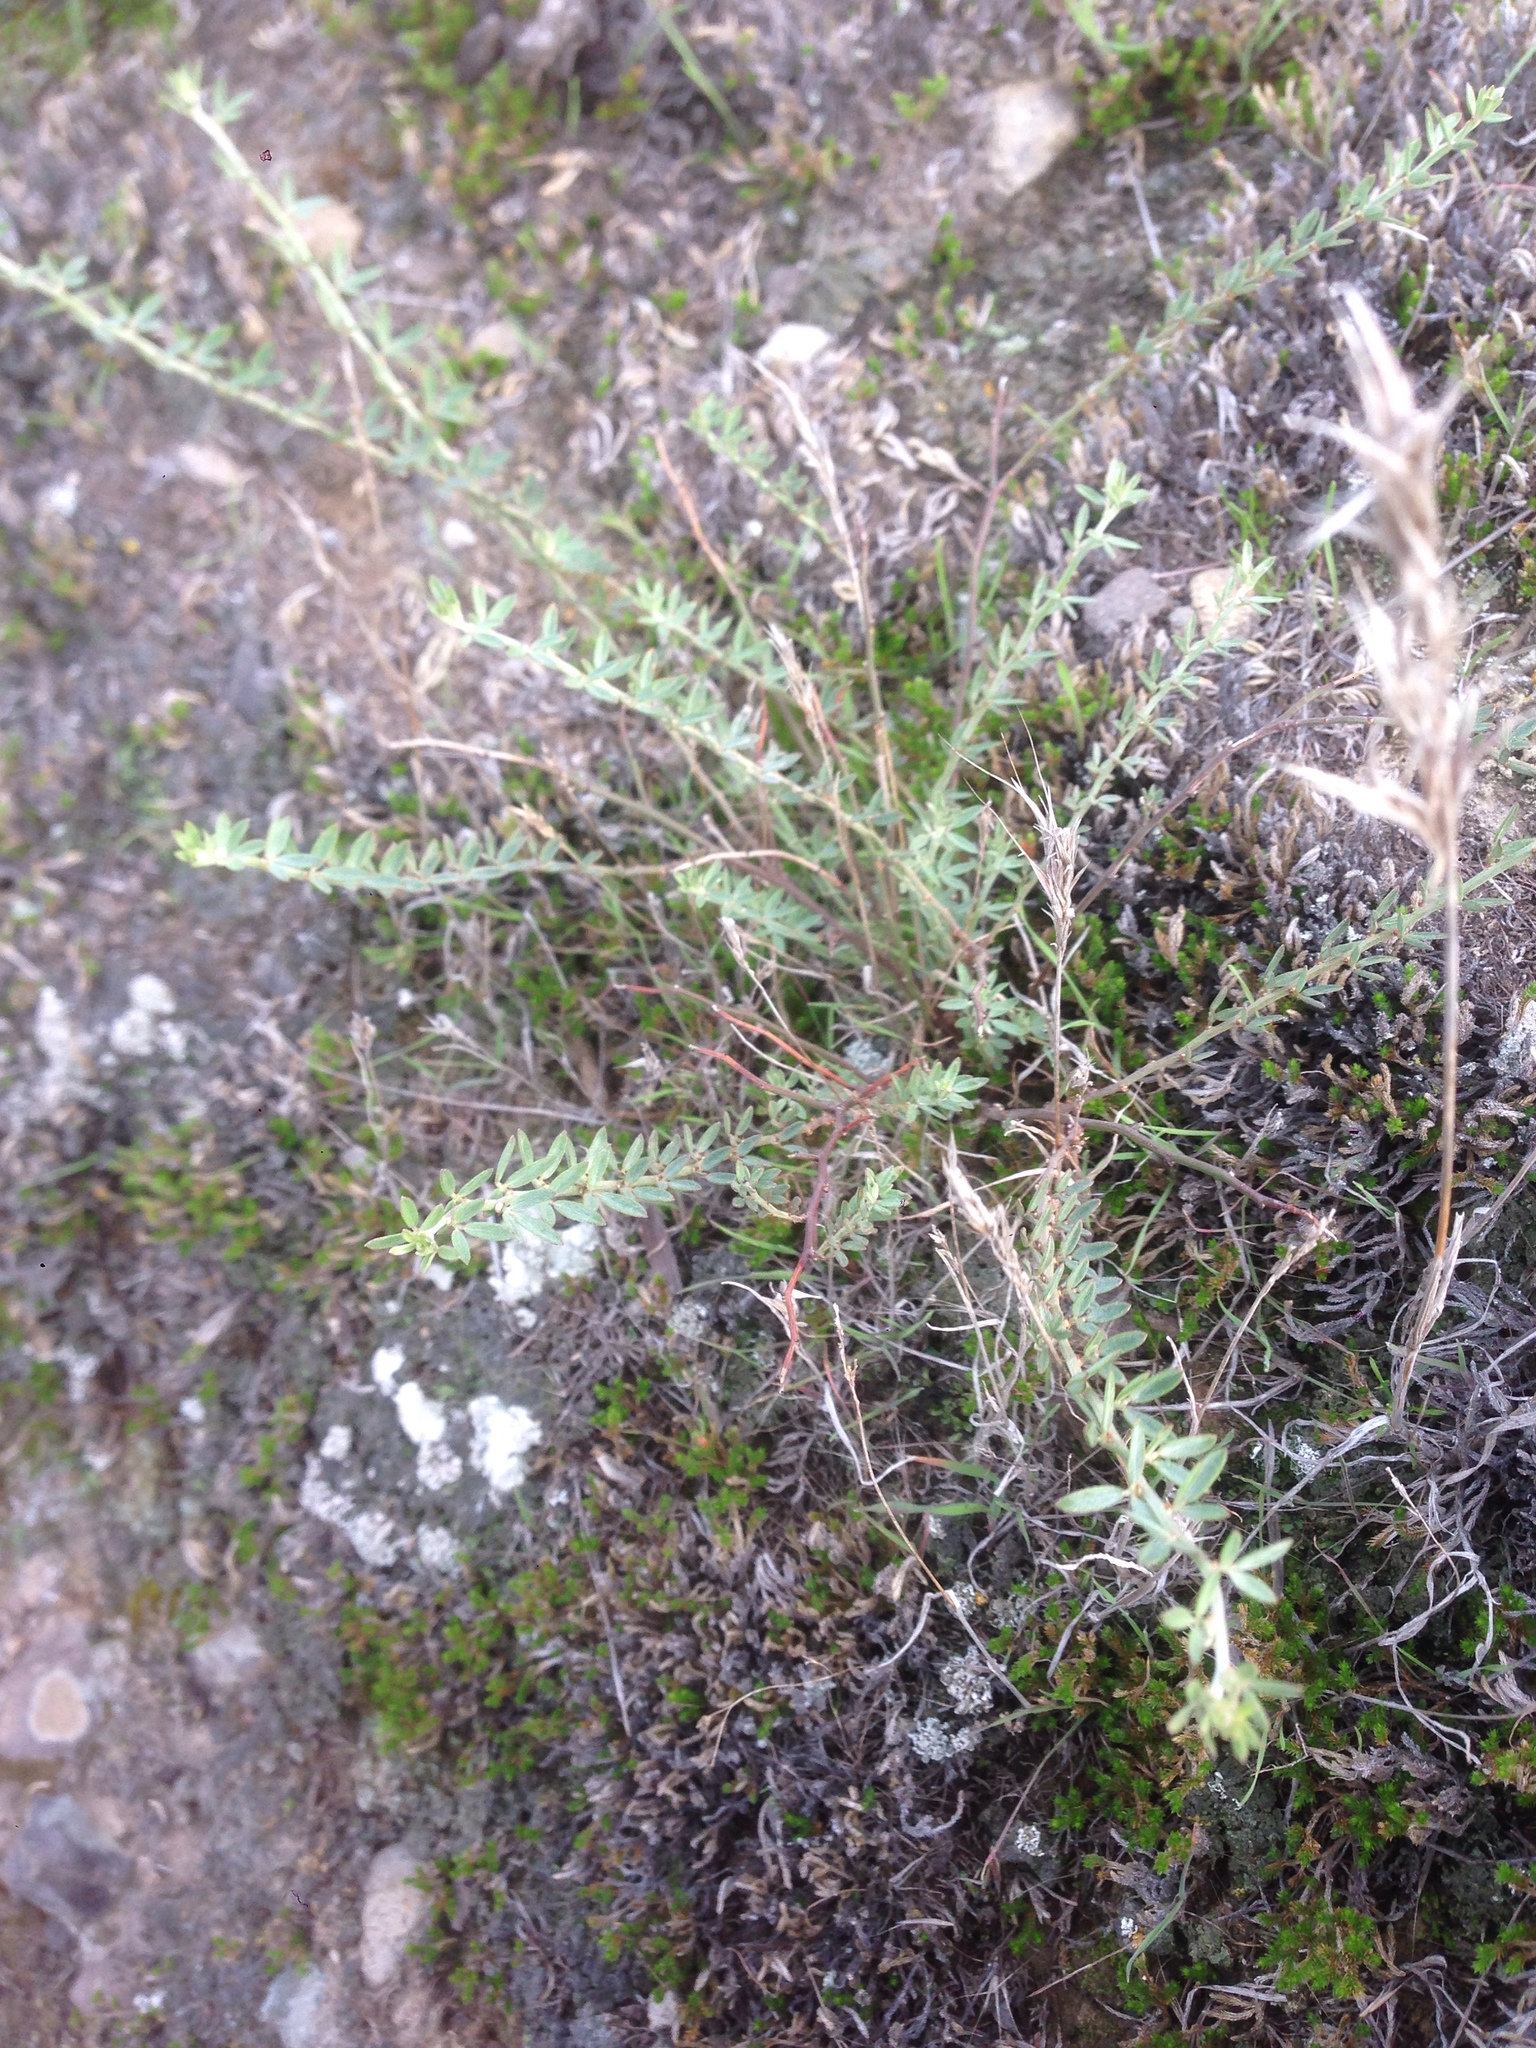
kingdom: Plantae
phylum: Tracheophyta
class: Magnoliopsida
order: Fabales
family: Fabaceae
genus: Acmispon
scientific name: Acmispon glaber
